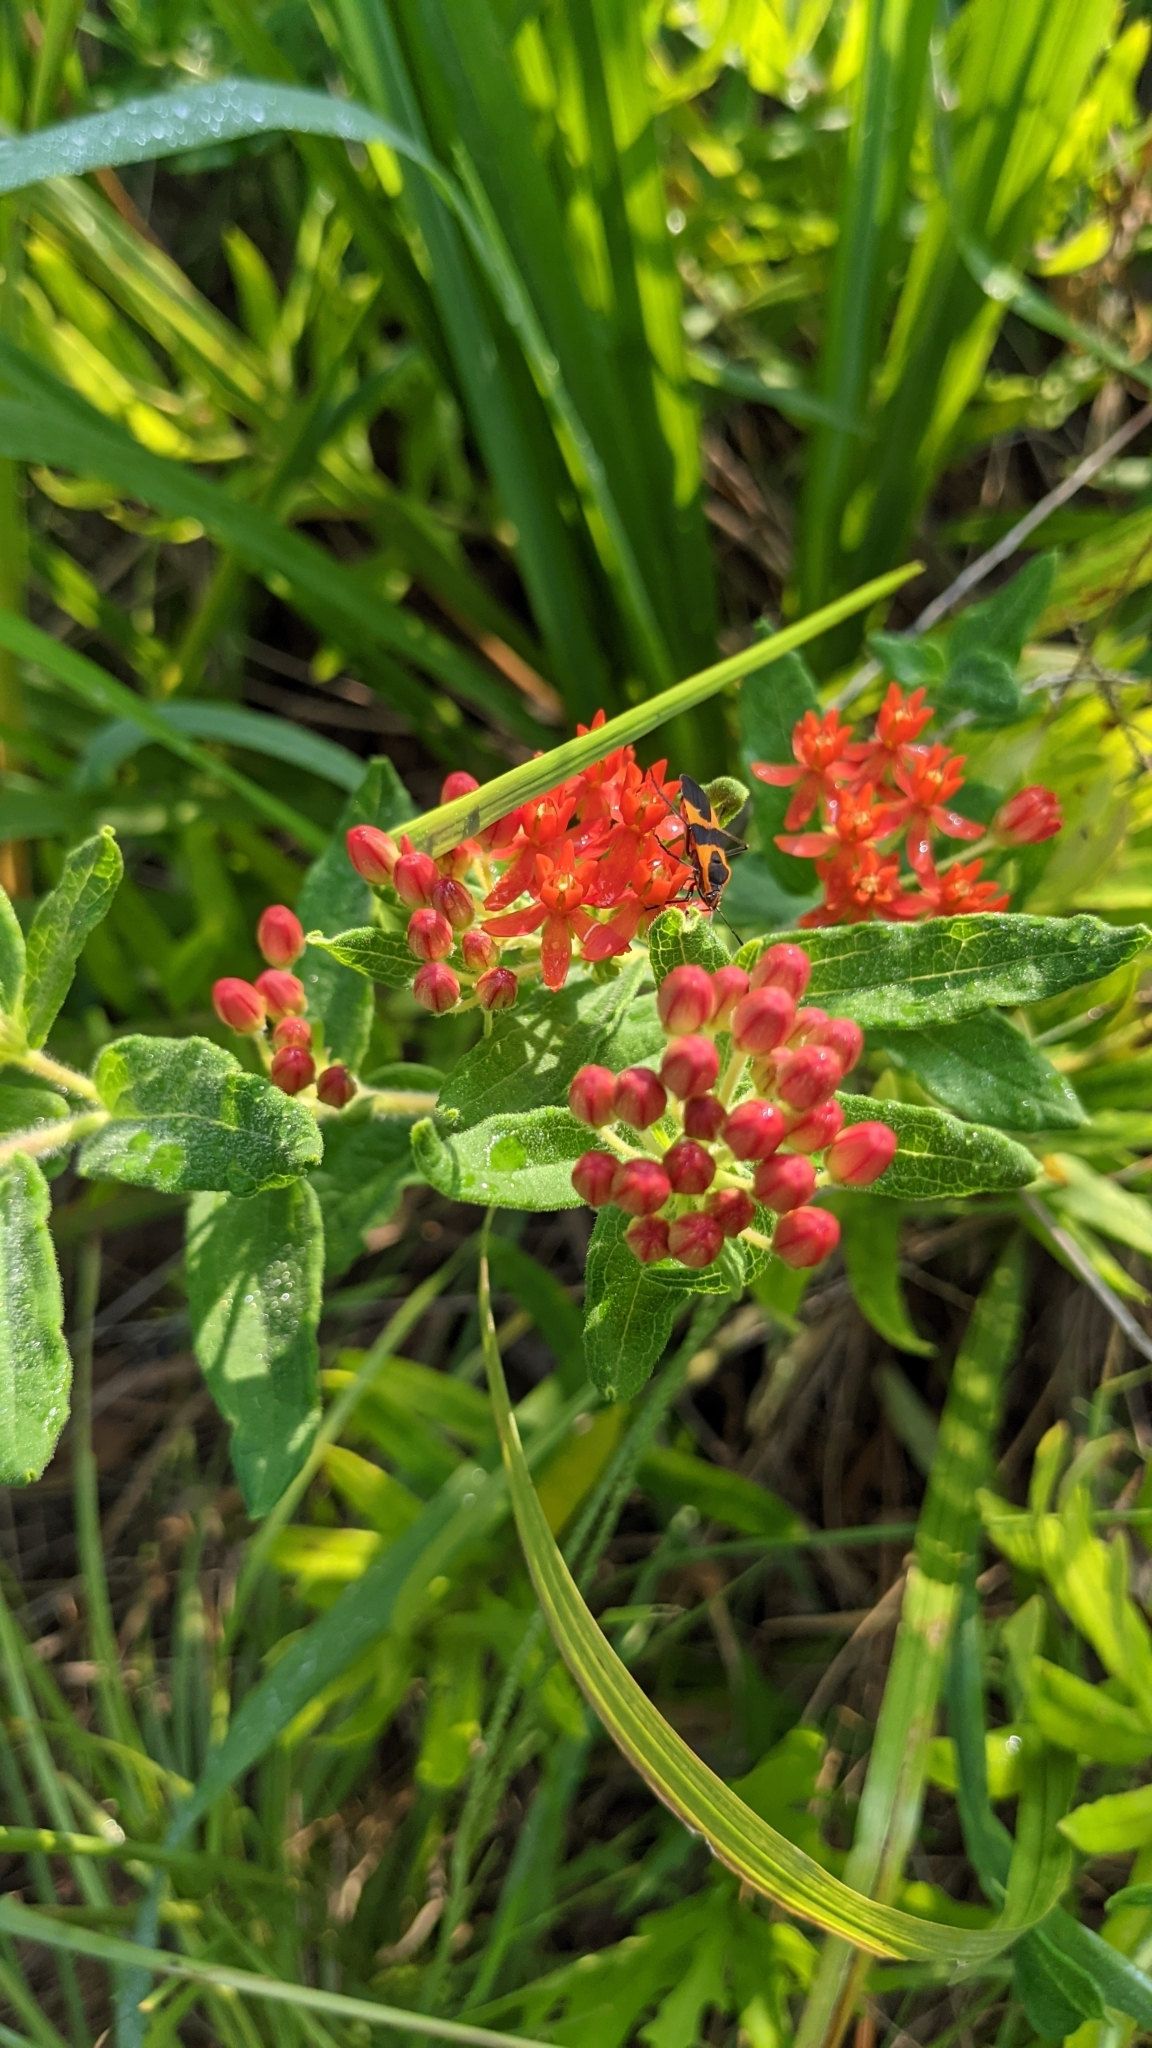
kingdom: Plantae
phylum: Tracheophyta
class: Magnoliopsida
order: Gentianales
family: Apocynaceae
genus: Asclepias
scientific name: Asclepias tuberosa
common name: Butterfly milkweed
